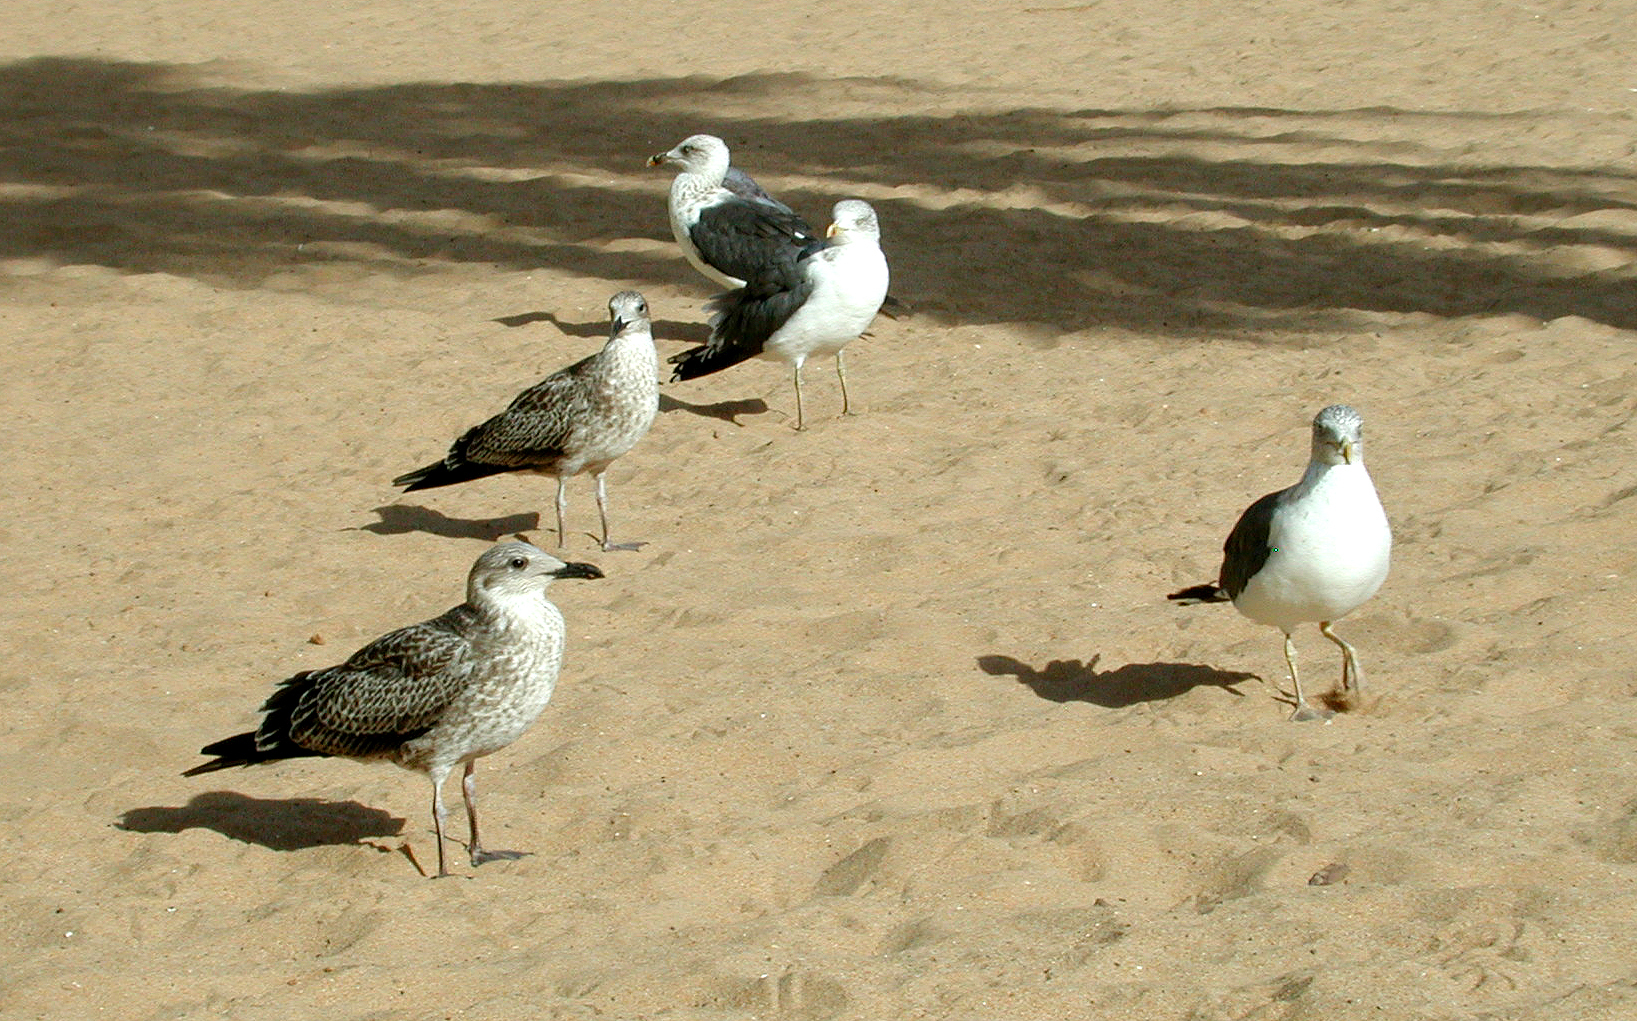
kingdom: Animalia
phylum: Chordata
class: Aves
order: Charadriiformes
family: Laridae
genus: Larus
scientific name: Larus fuscus
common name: Lesser black-backed gull
